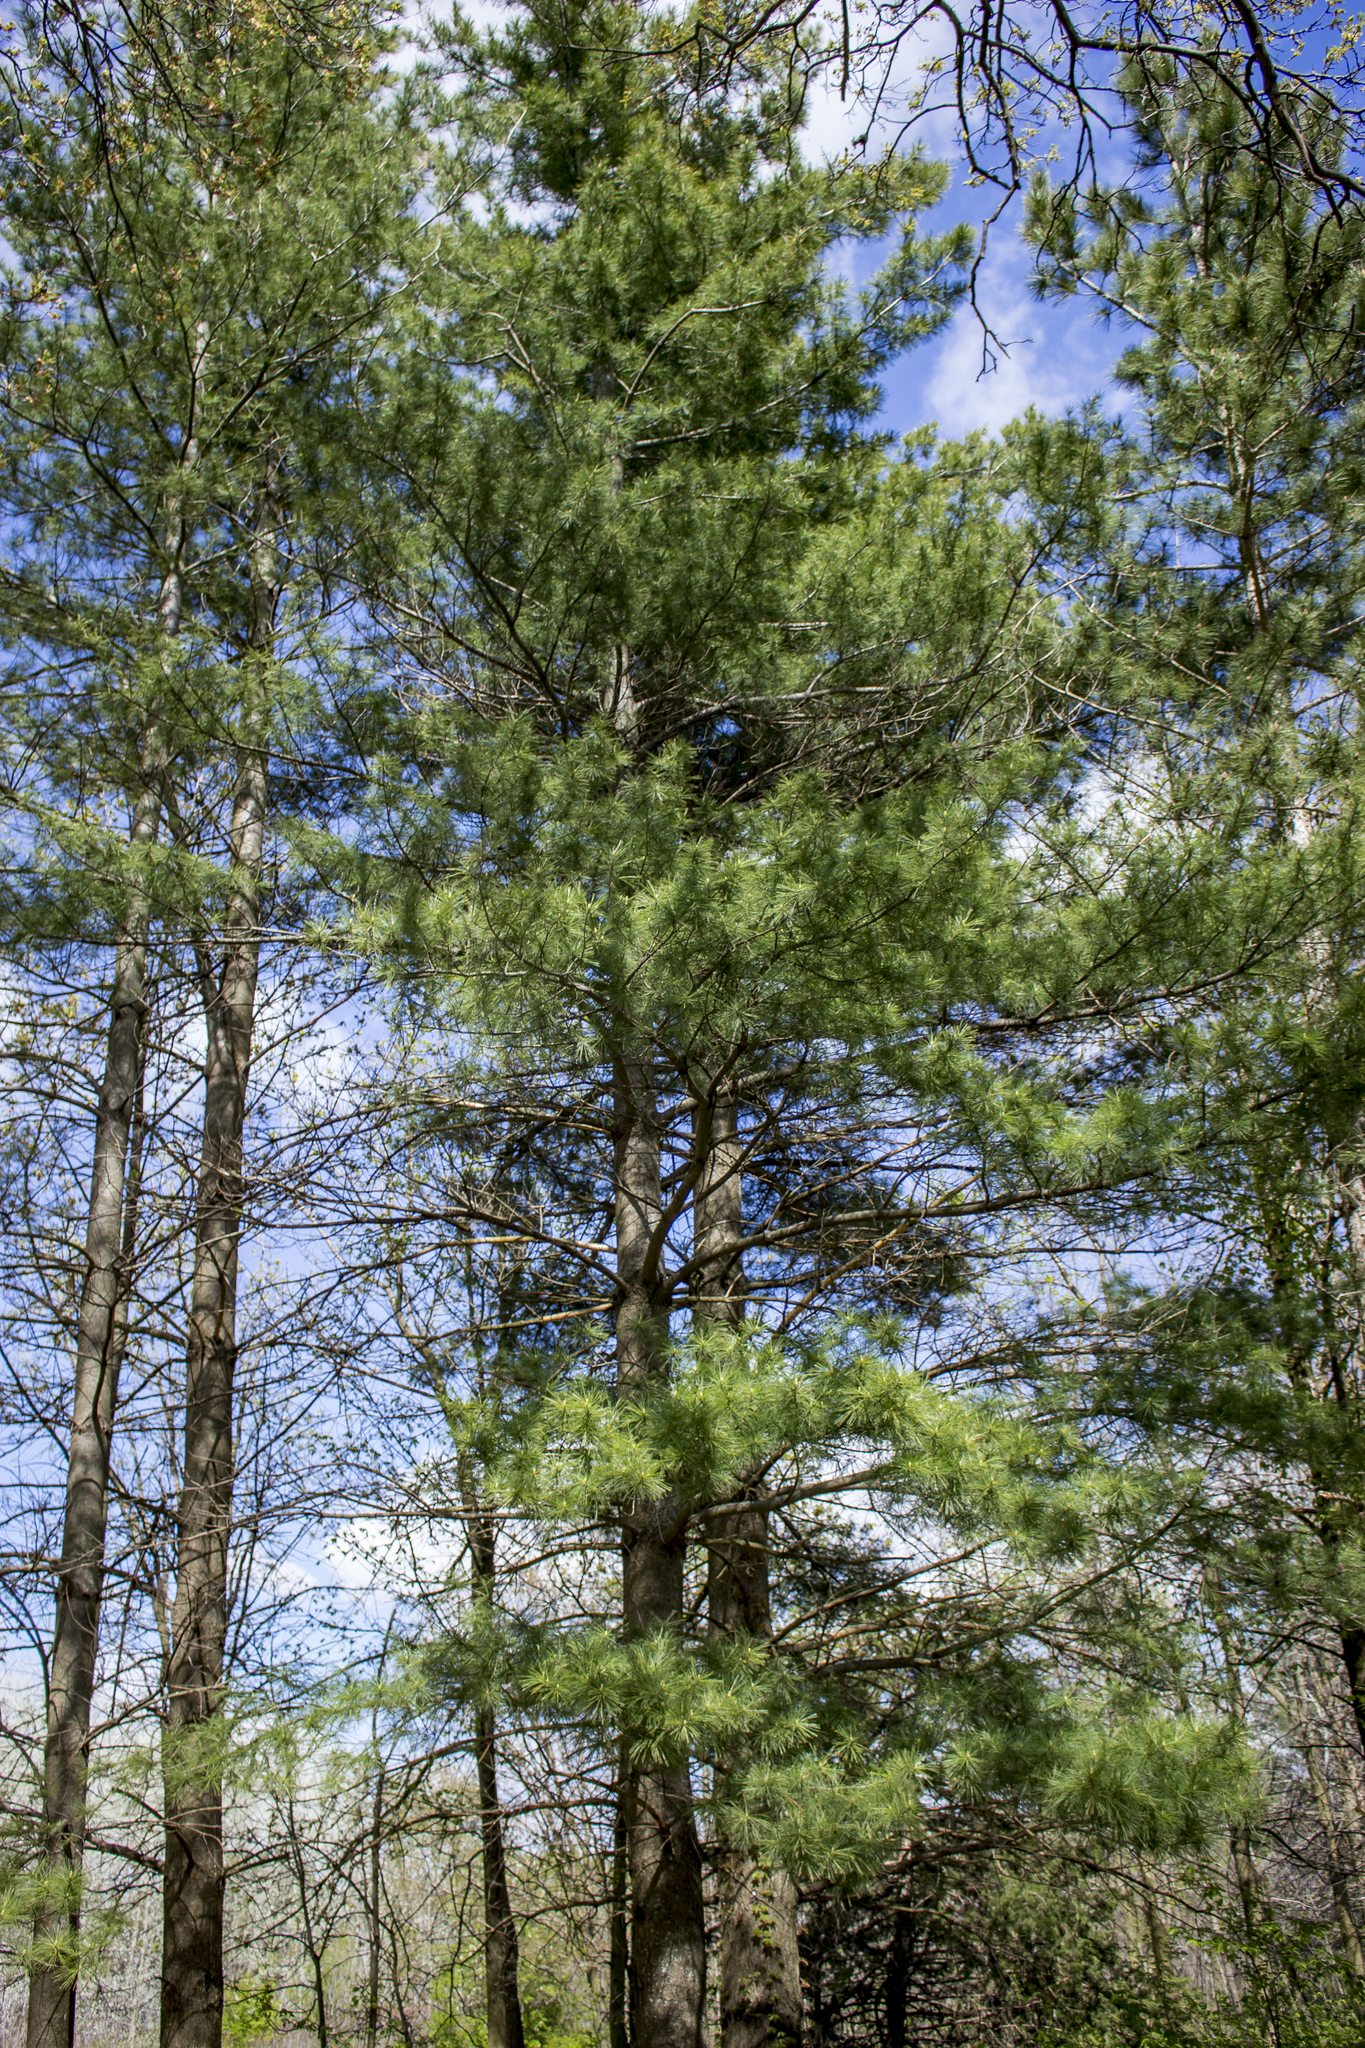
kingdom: Plantae
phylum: Tracheophyta
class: Pinopsida
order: Pinales
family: Pinaceae
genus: Pinus
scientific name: Pinus strobus
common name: Weymouth pine
